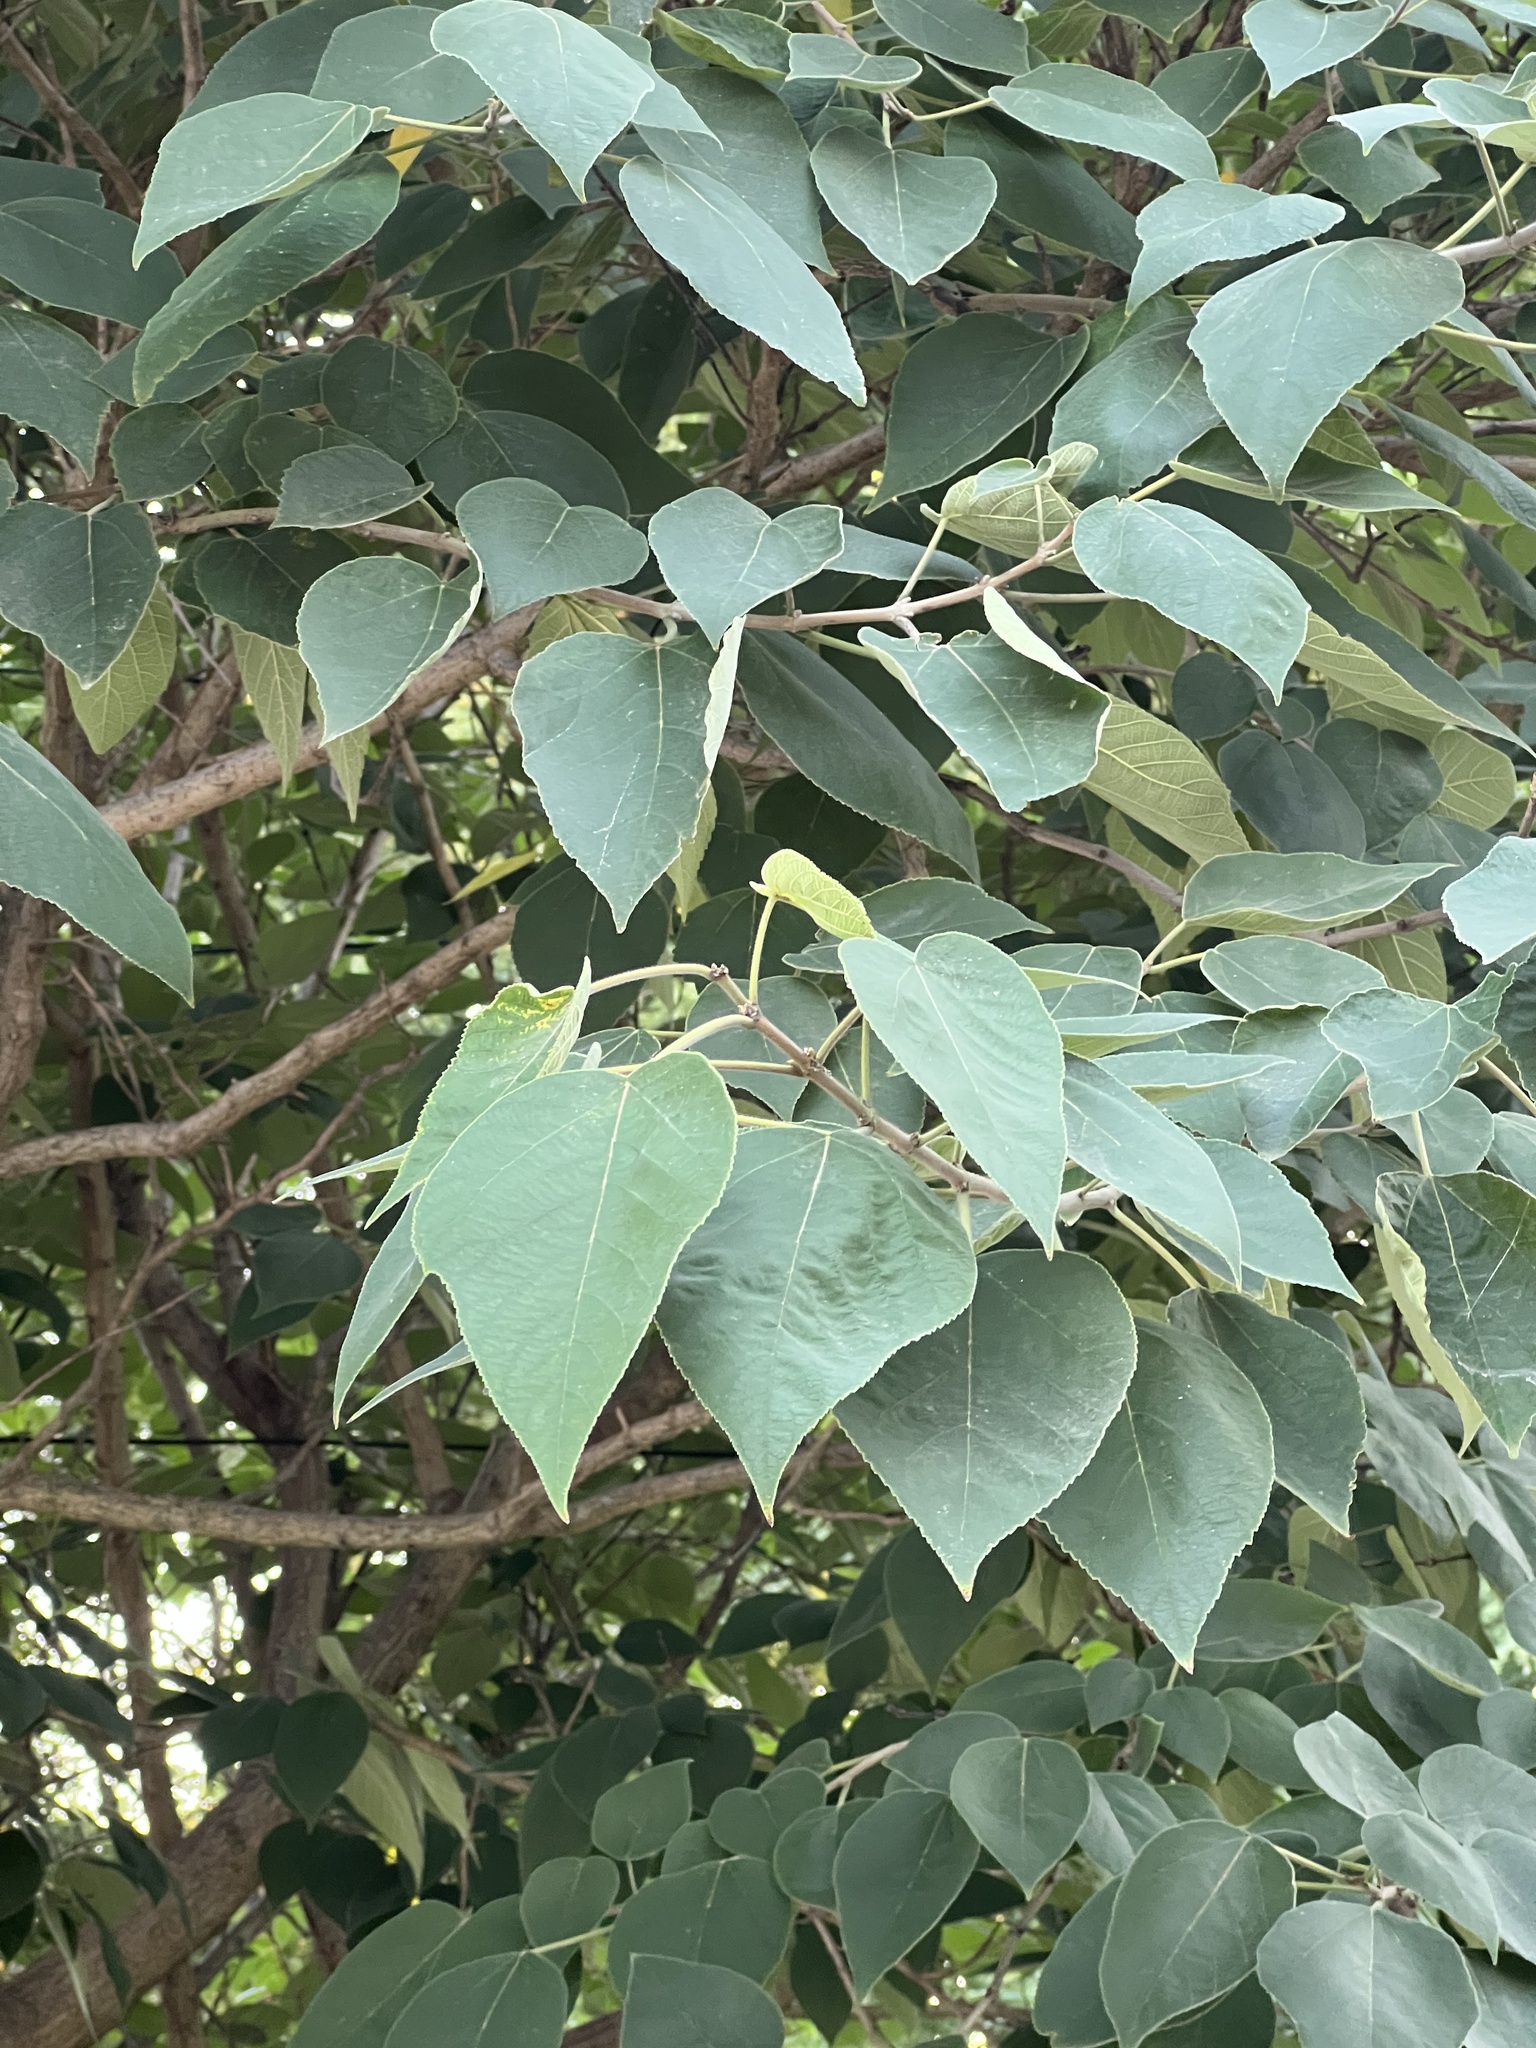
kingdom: Plantae
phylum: Tracheophyta
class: Magnoliopsida
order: Rosales
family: Moraceae
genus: Broussonetia
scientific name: Broussonetia papyrifera
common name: Paper mulberry
